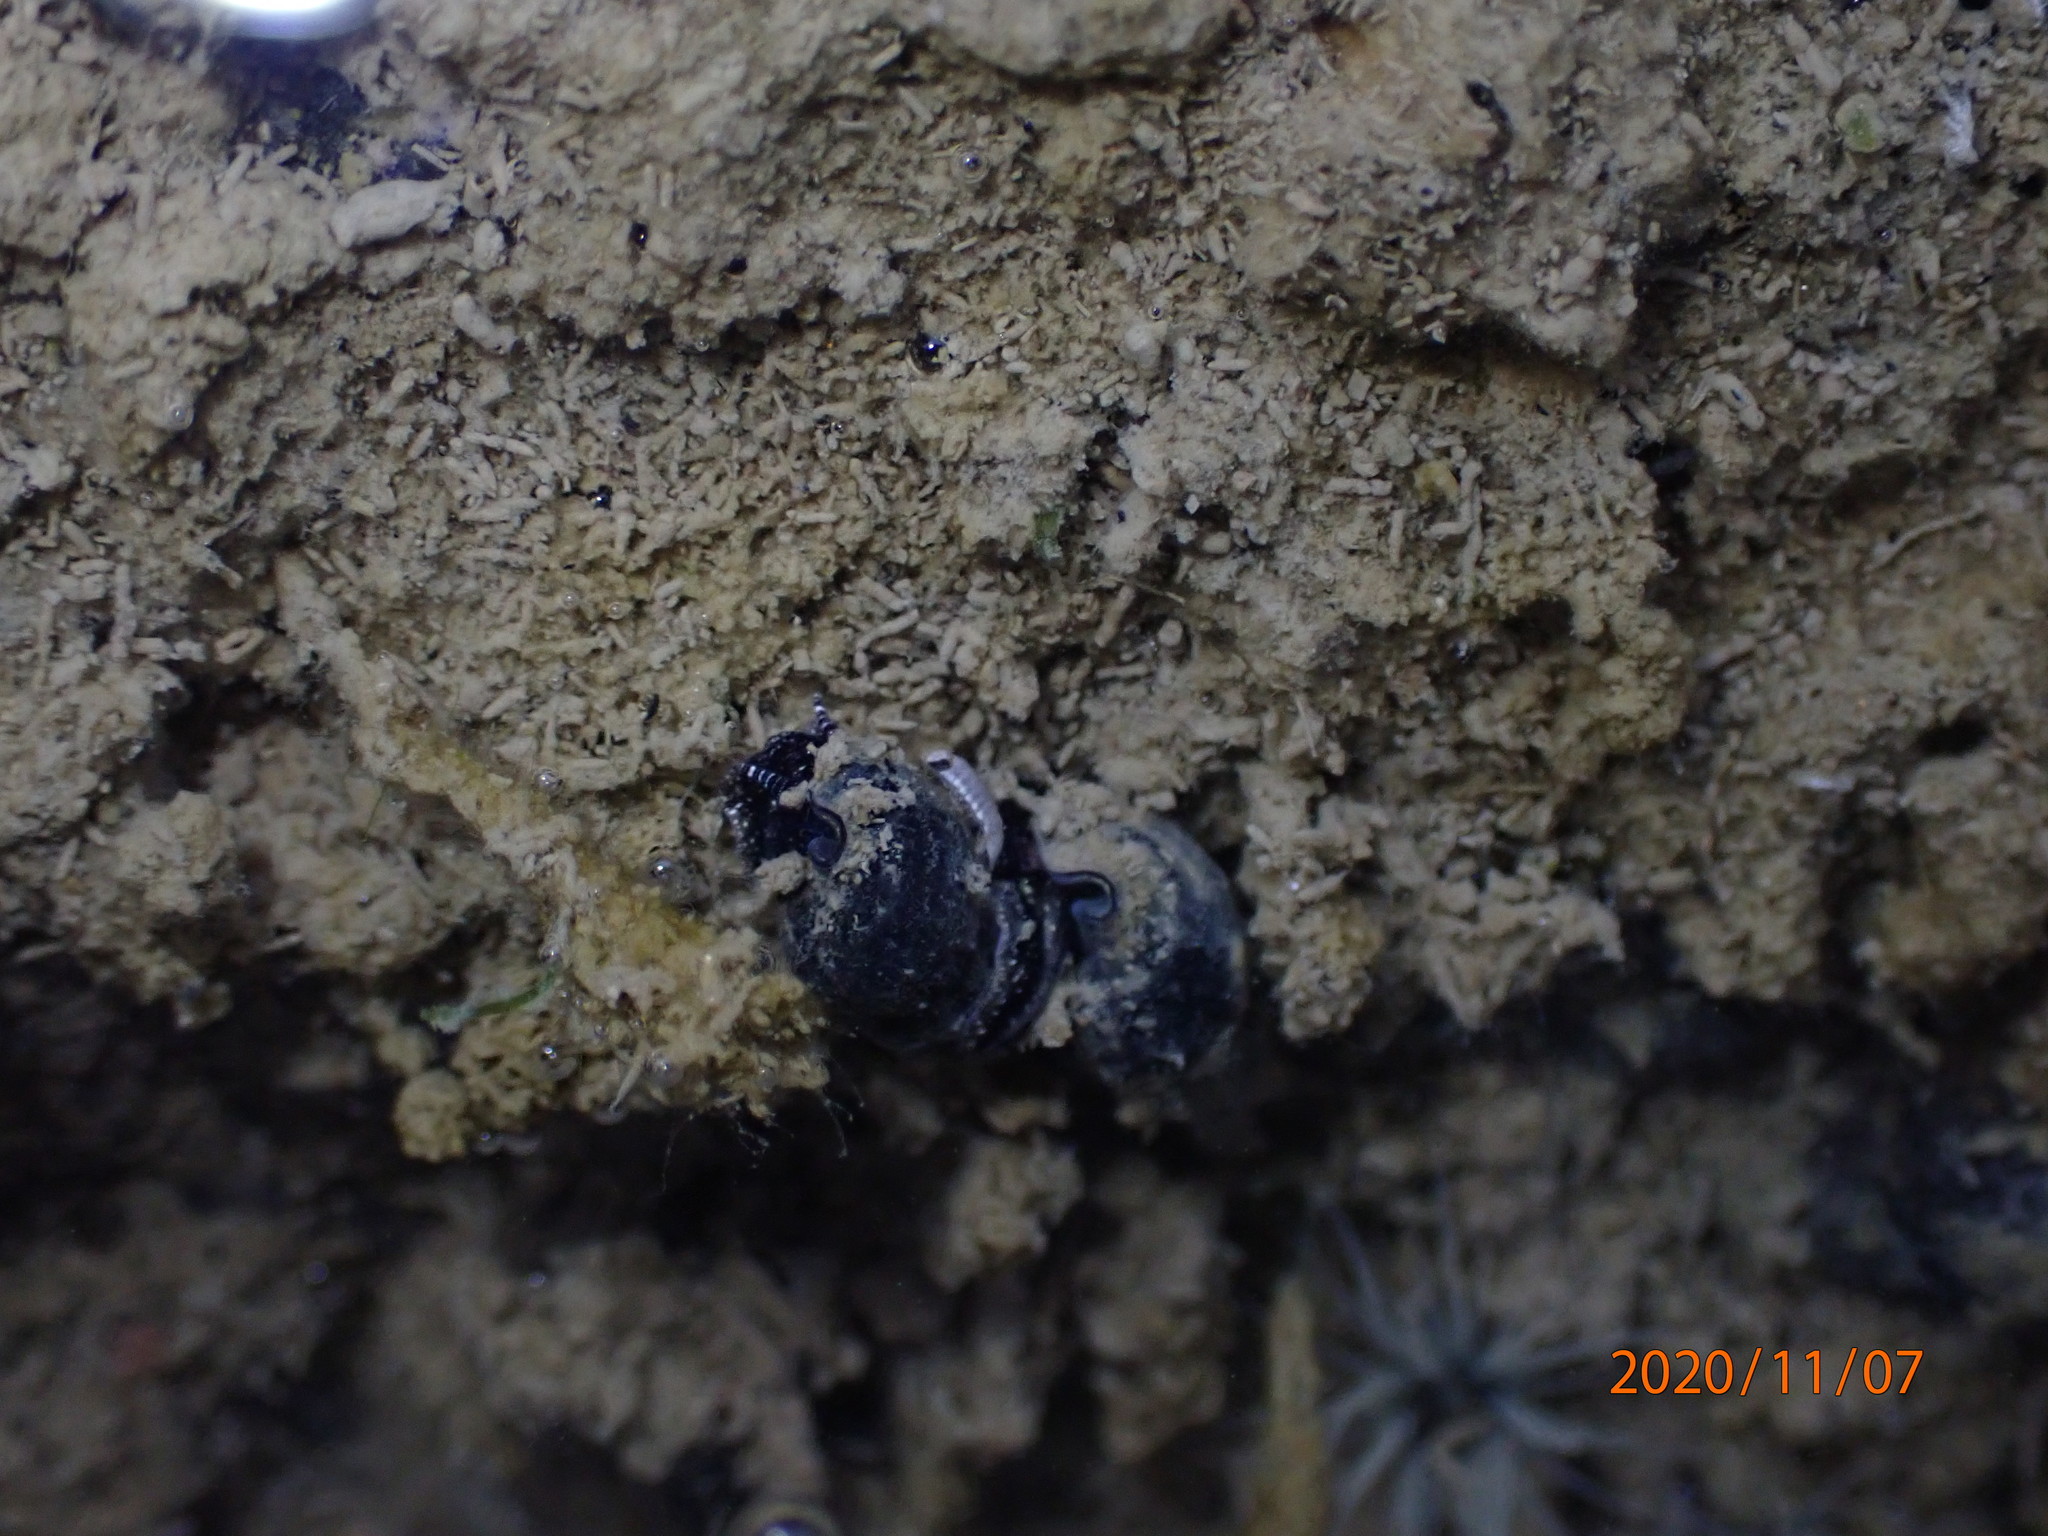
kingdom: Animalia
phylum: Mollusca
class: Gastropoda
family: Batillariidae
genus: Zeacumantus
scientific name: Zeacumantus subcarinatus
